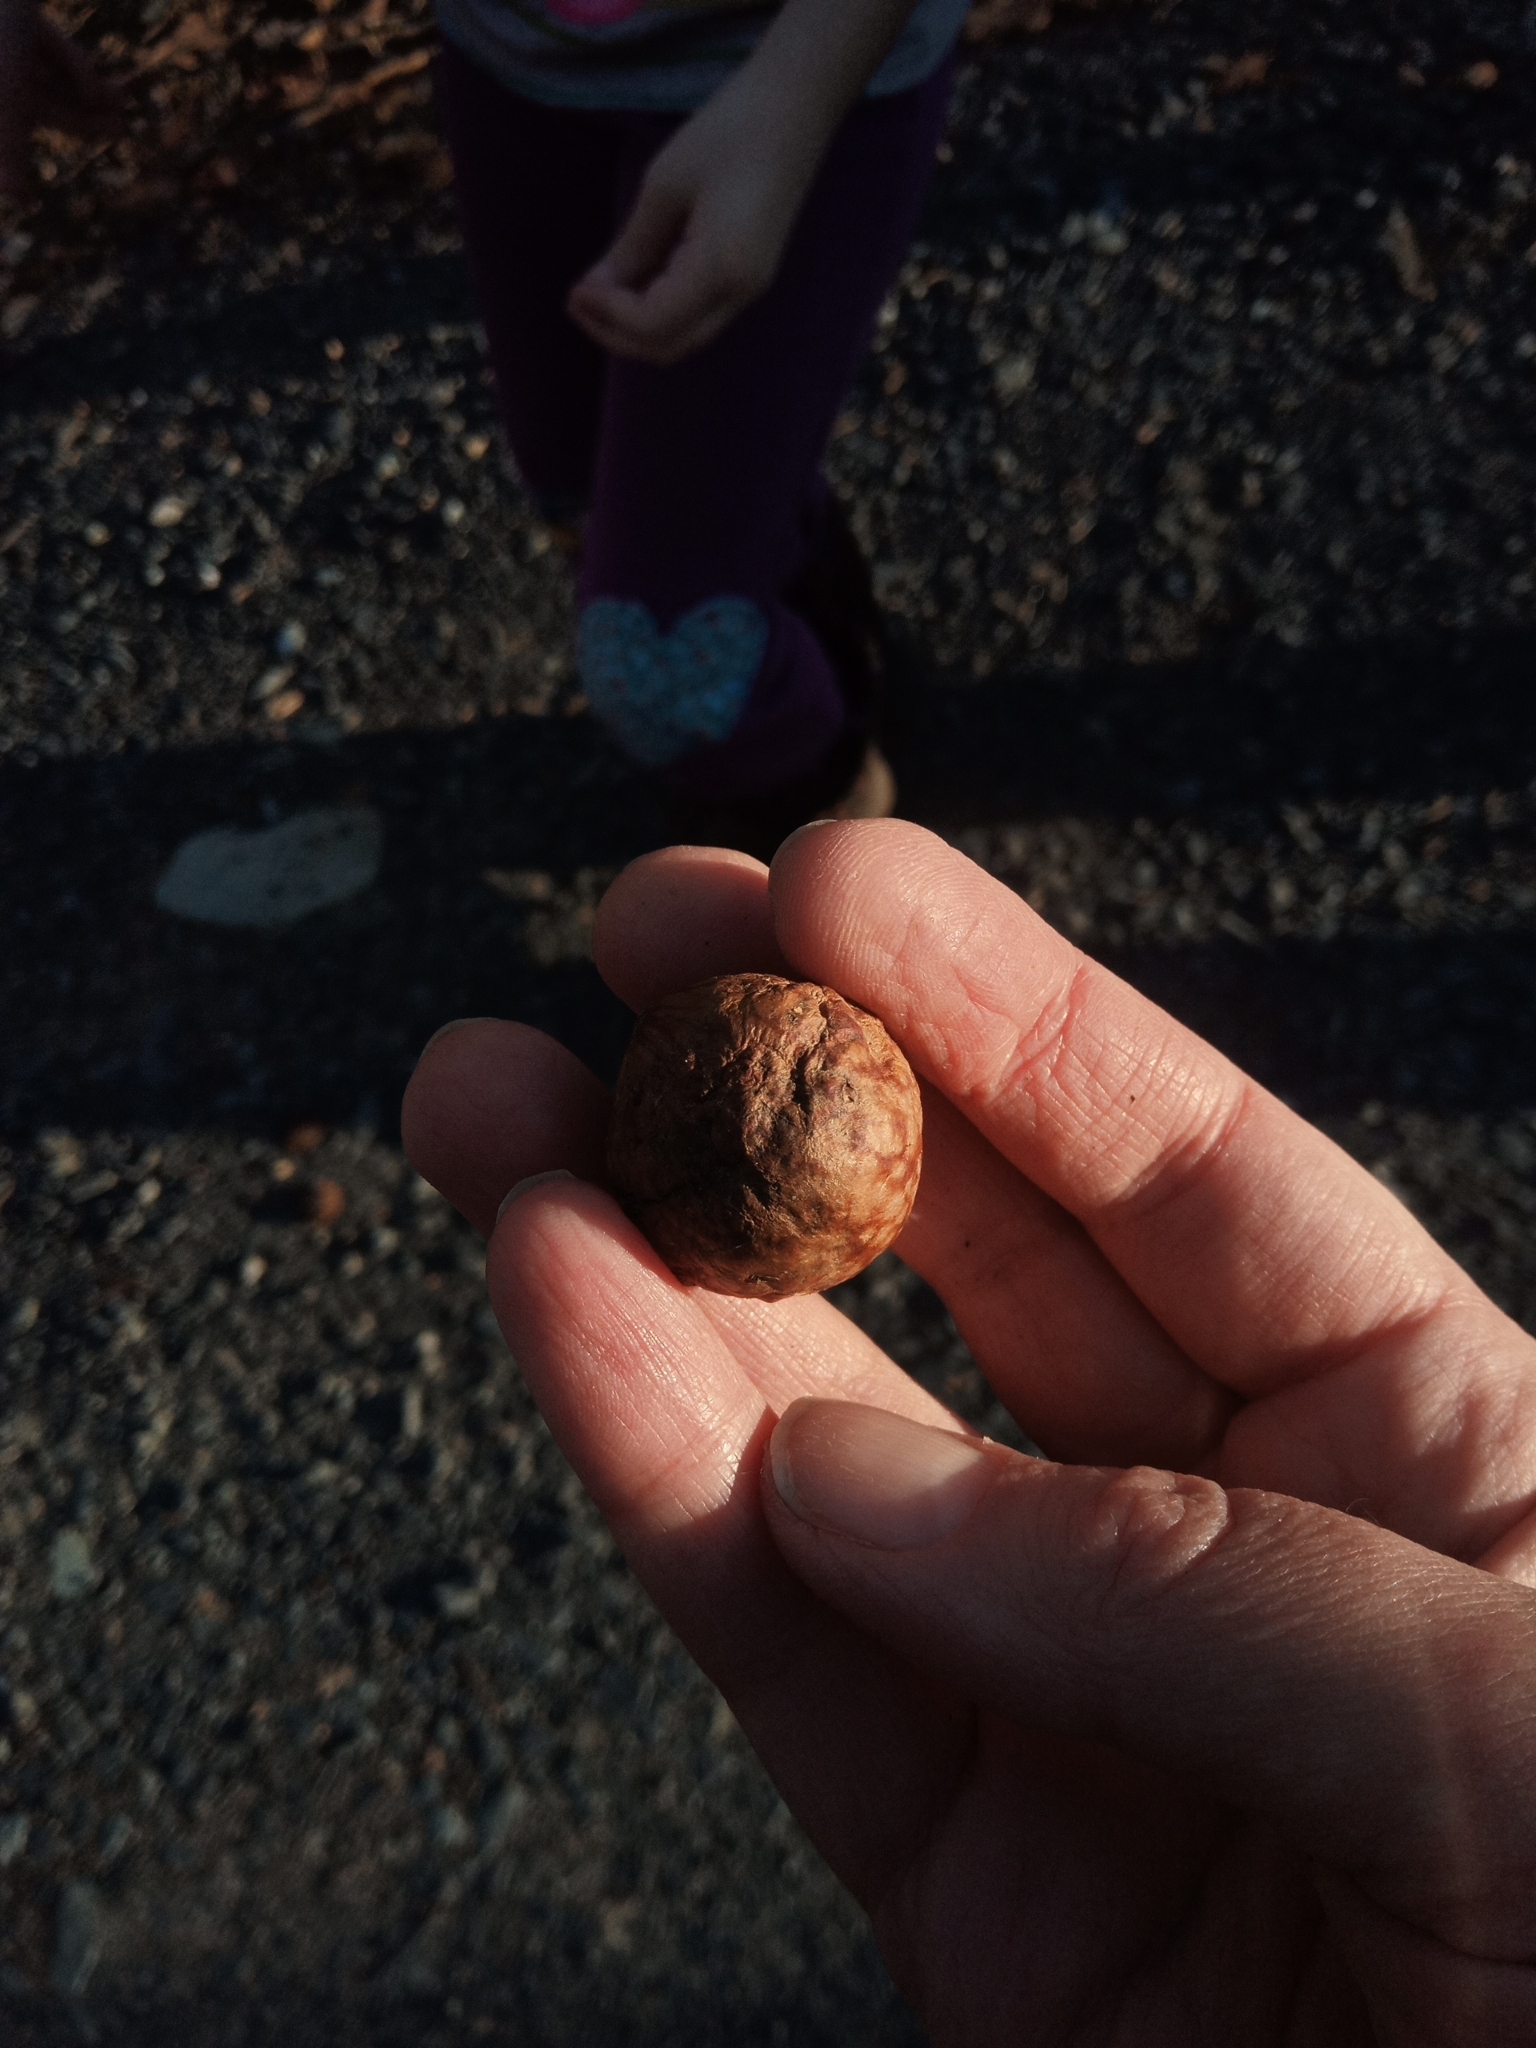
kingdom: Animalia
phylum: Arthropoda
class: Insecta
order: Hymenoptera
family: Cynipidae
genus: Amphibolips
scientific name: Amphibolips
